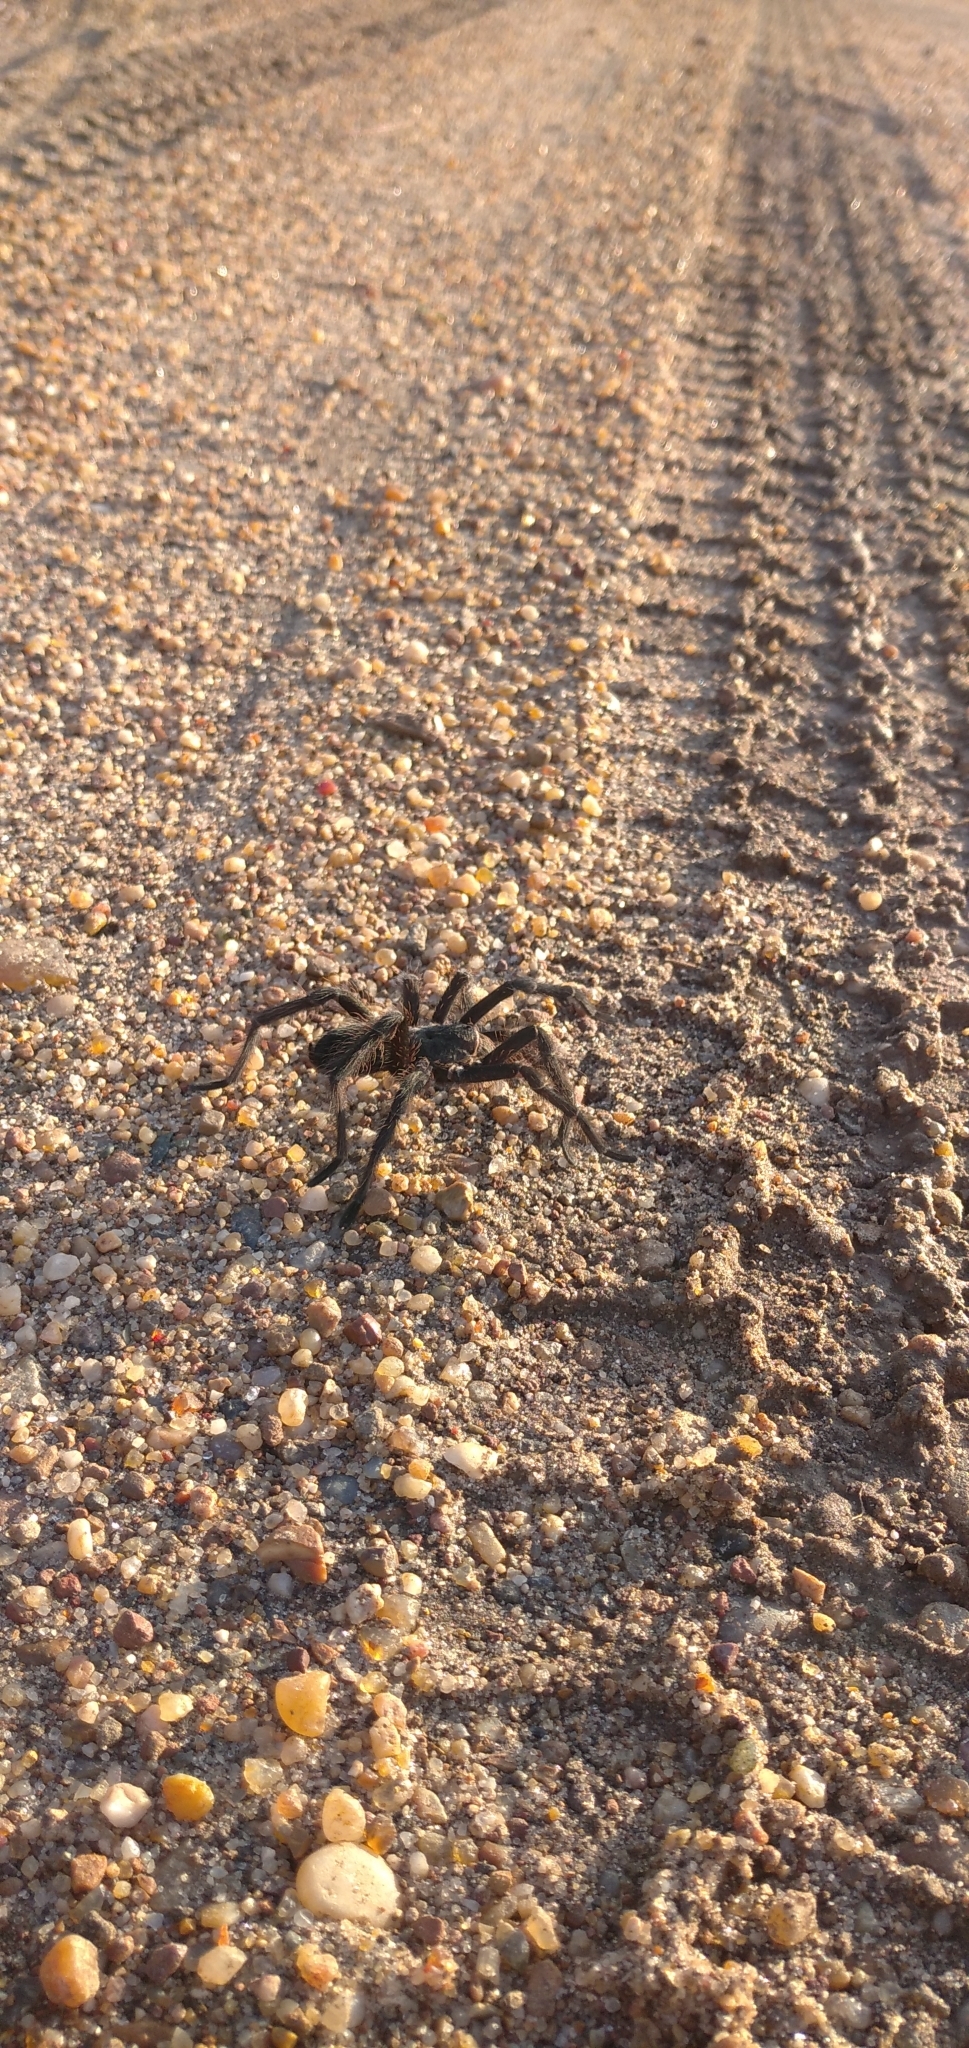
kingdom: Animalia
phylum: Arthropoda
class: Arachnida
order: Araneae
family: Theraphosidae
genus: Eupalaestrus
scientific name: Eupalaestrus weijenberghi
